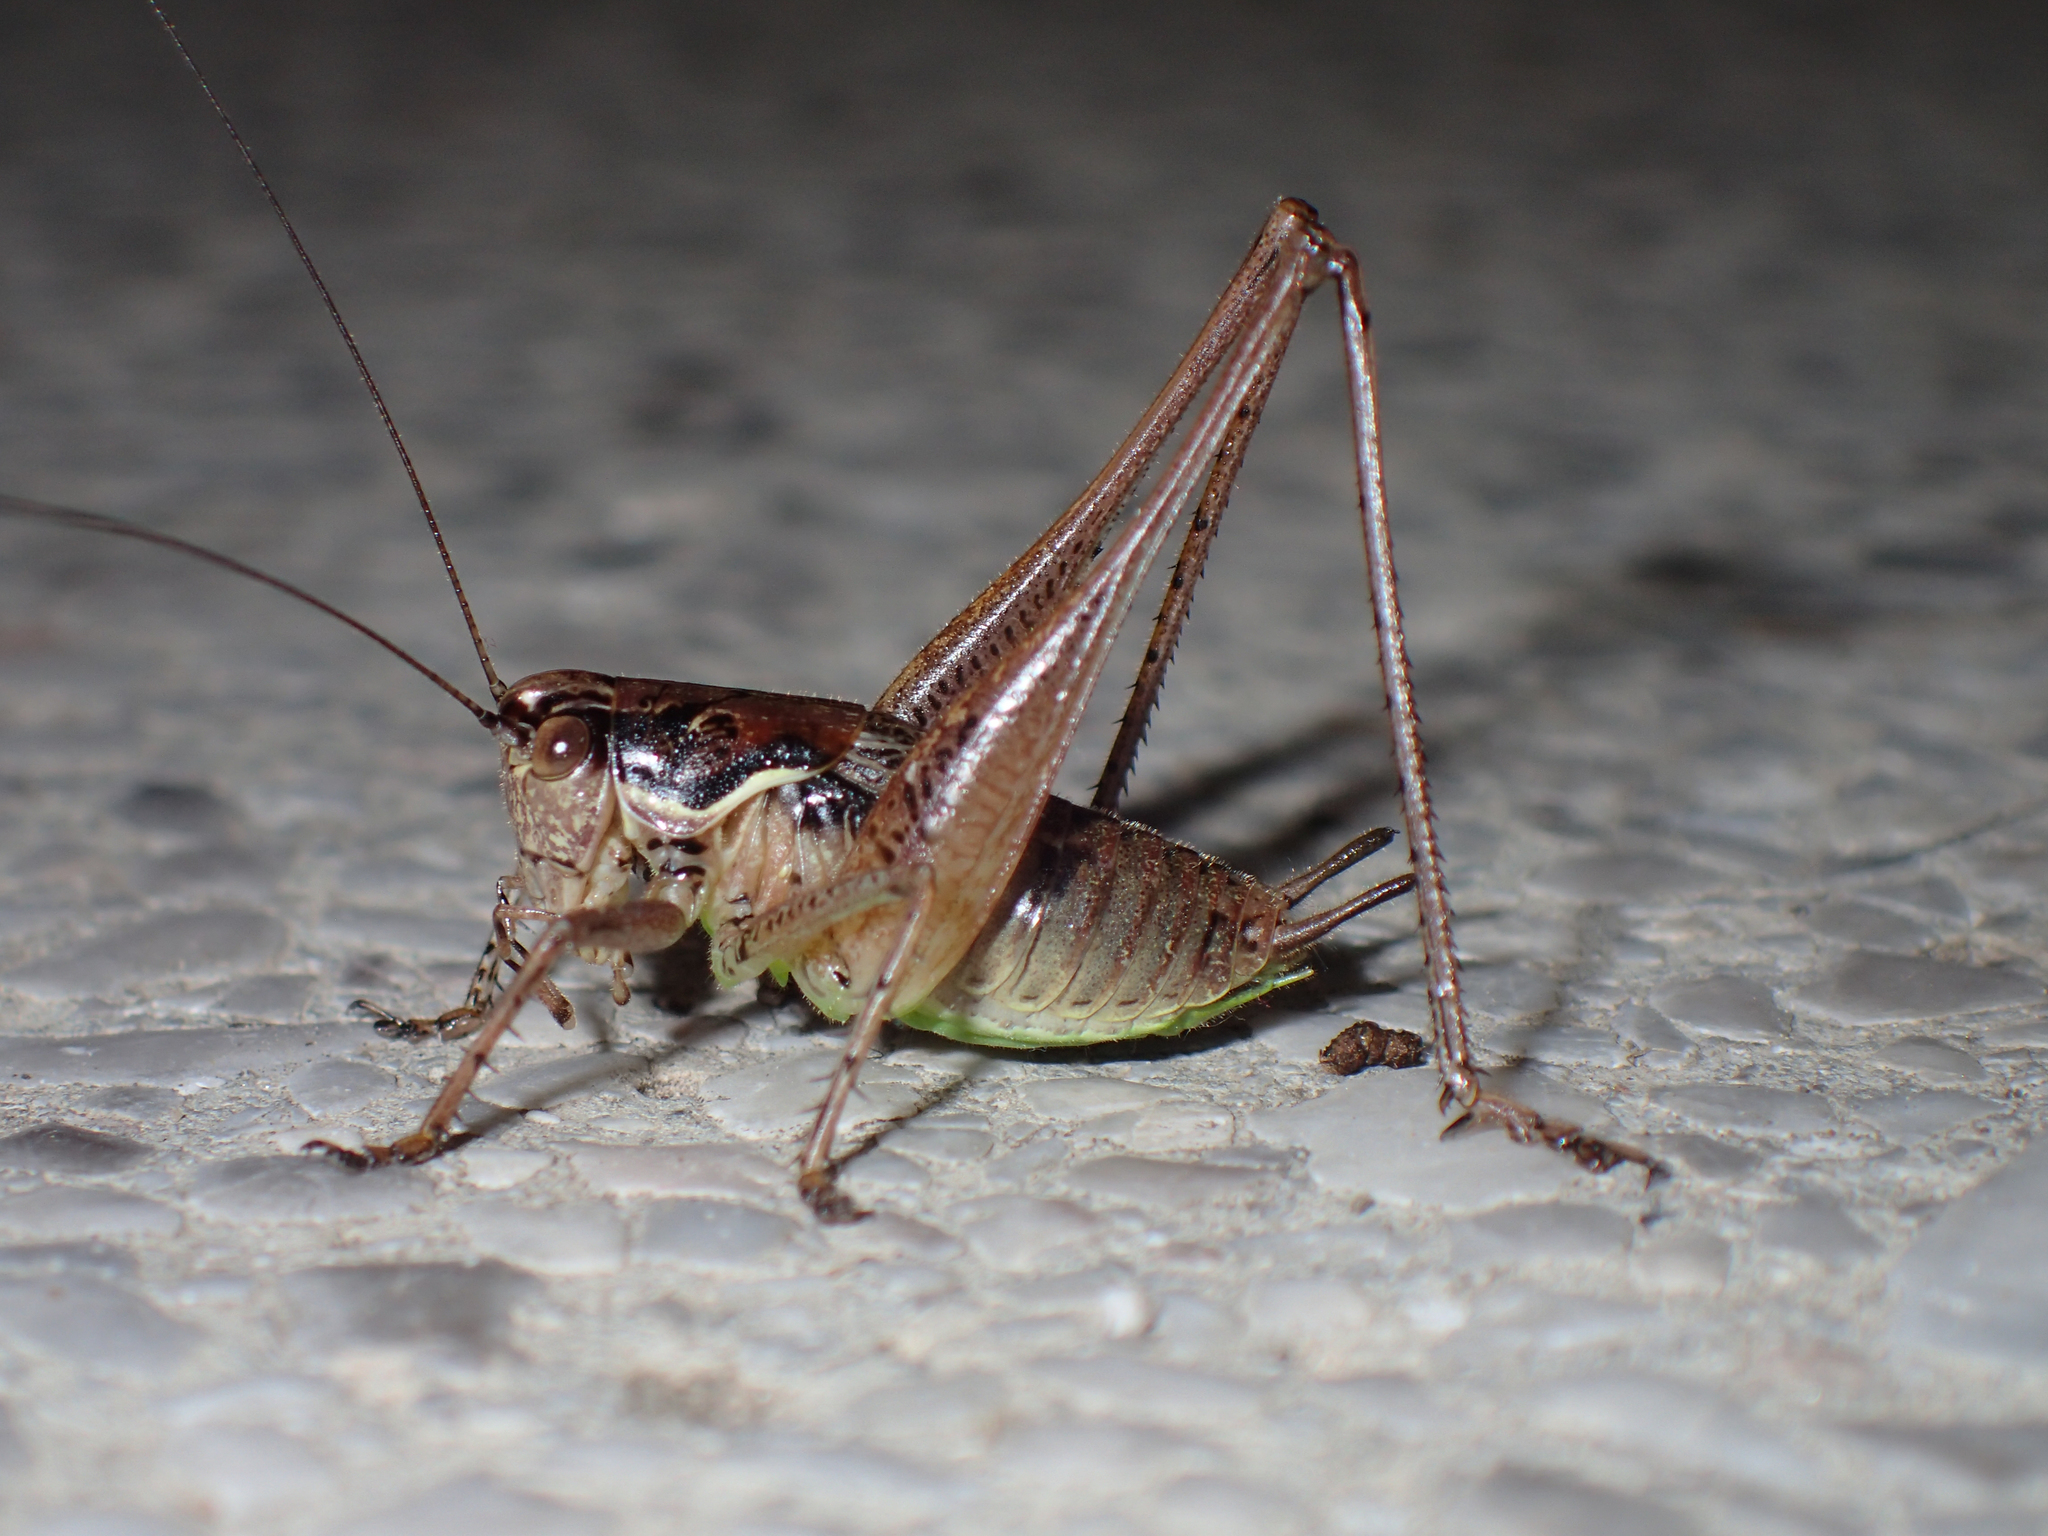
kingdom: Animalia
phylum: Arthropoda
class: Insecta
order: Orthoptera
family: Tettigoniidae
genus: Pachytrachis
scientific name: Pachytrachis gracilis
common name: Graceful bush-cricket
